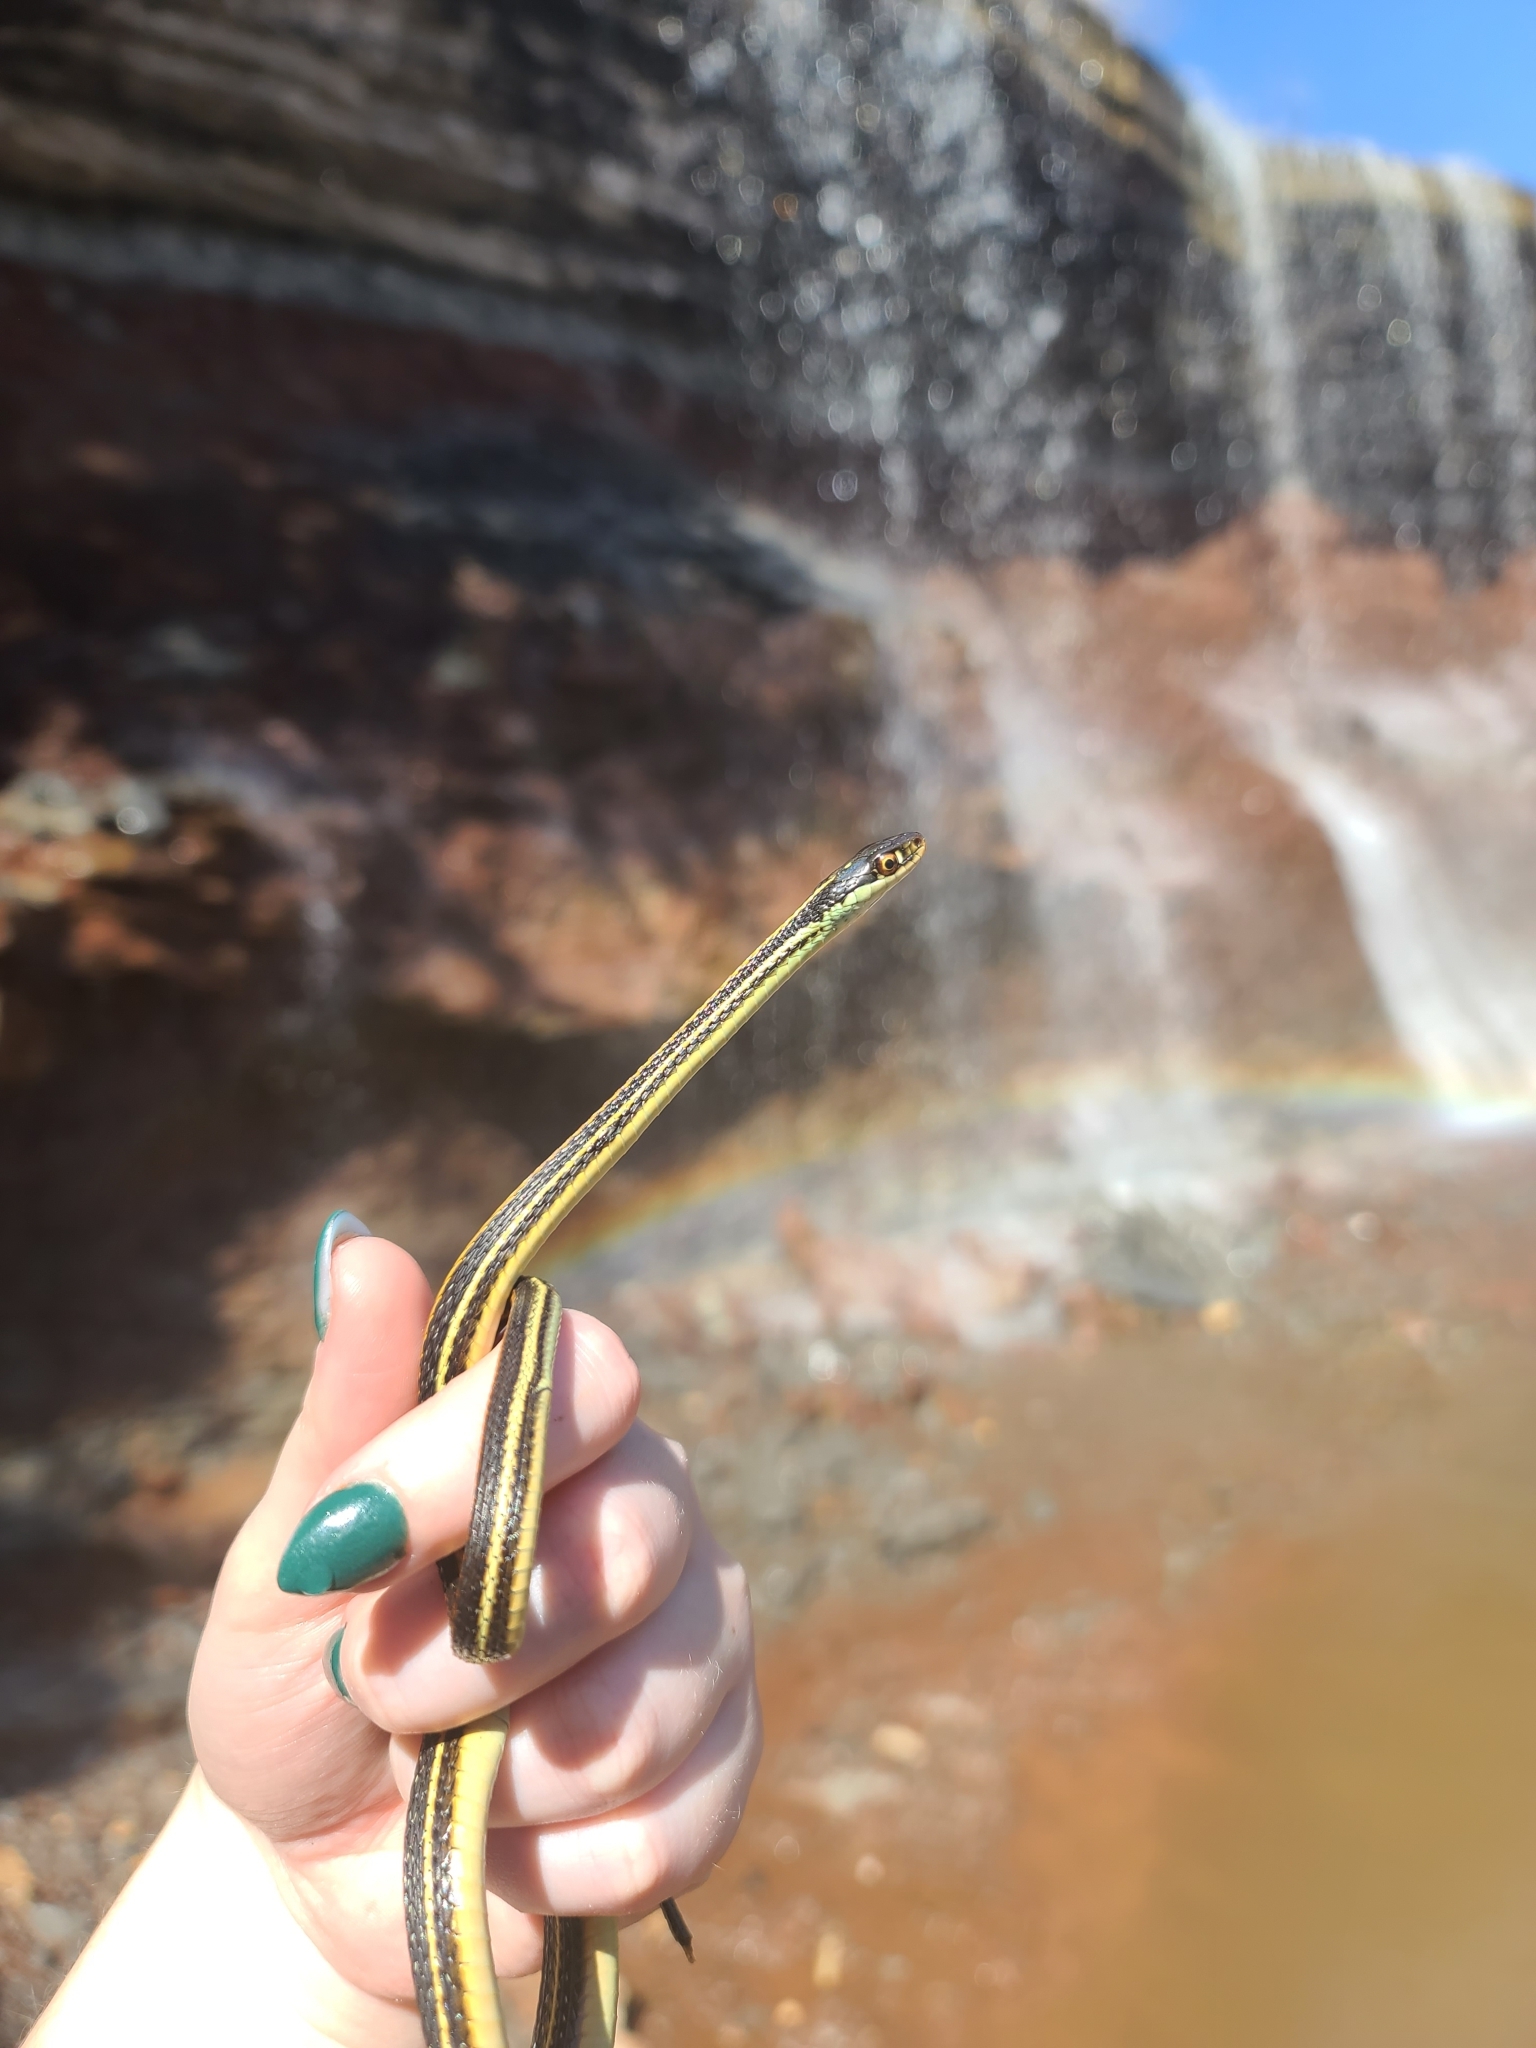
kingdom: Animalia
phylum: Chordata
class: Squamata
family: Colubridae
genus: Thamnophis
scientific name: Thamnophis proximus
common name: Western ribbon snake
